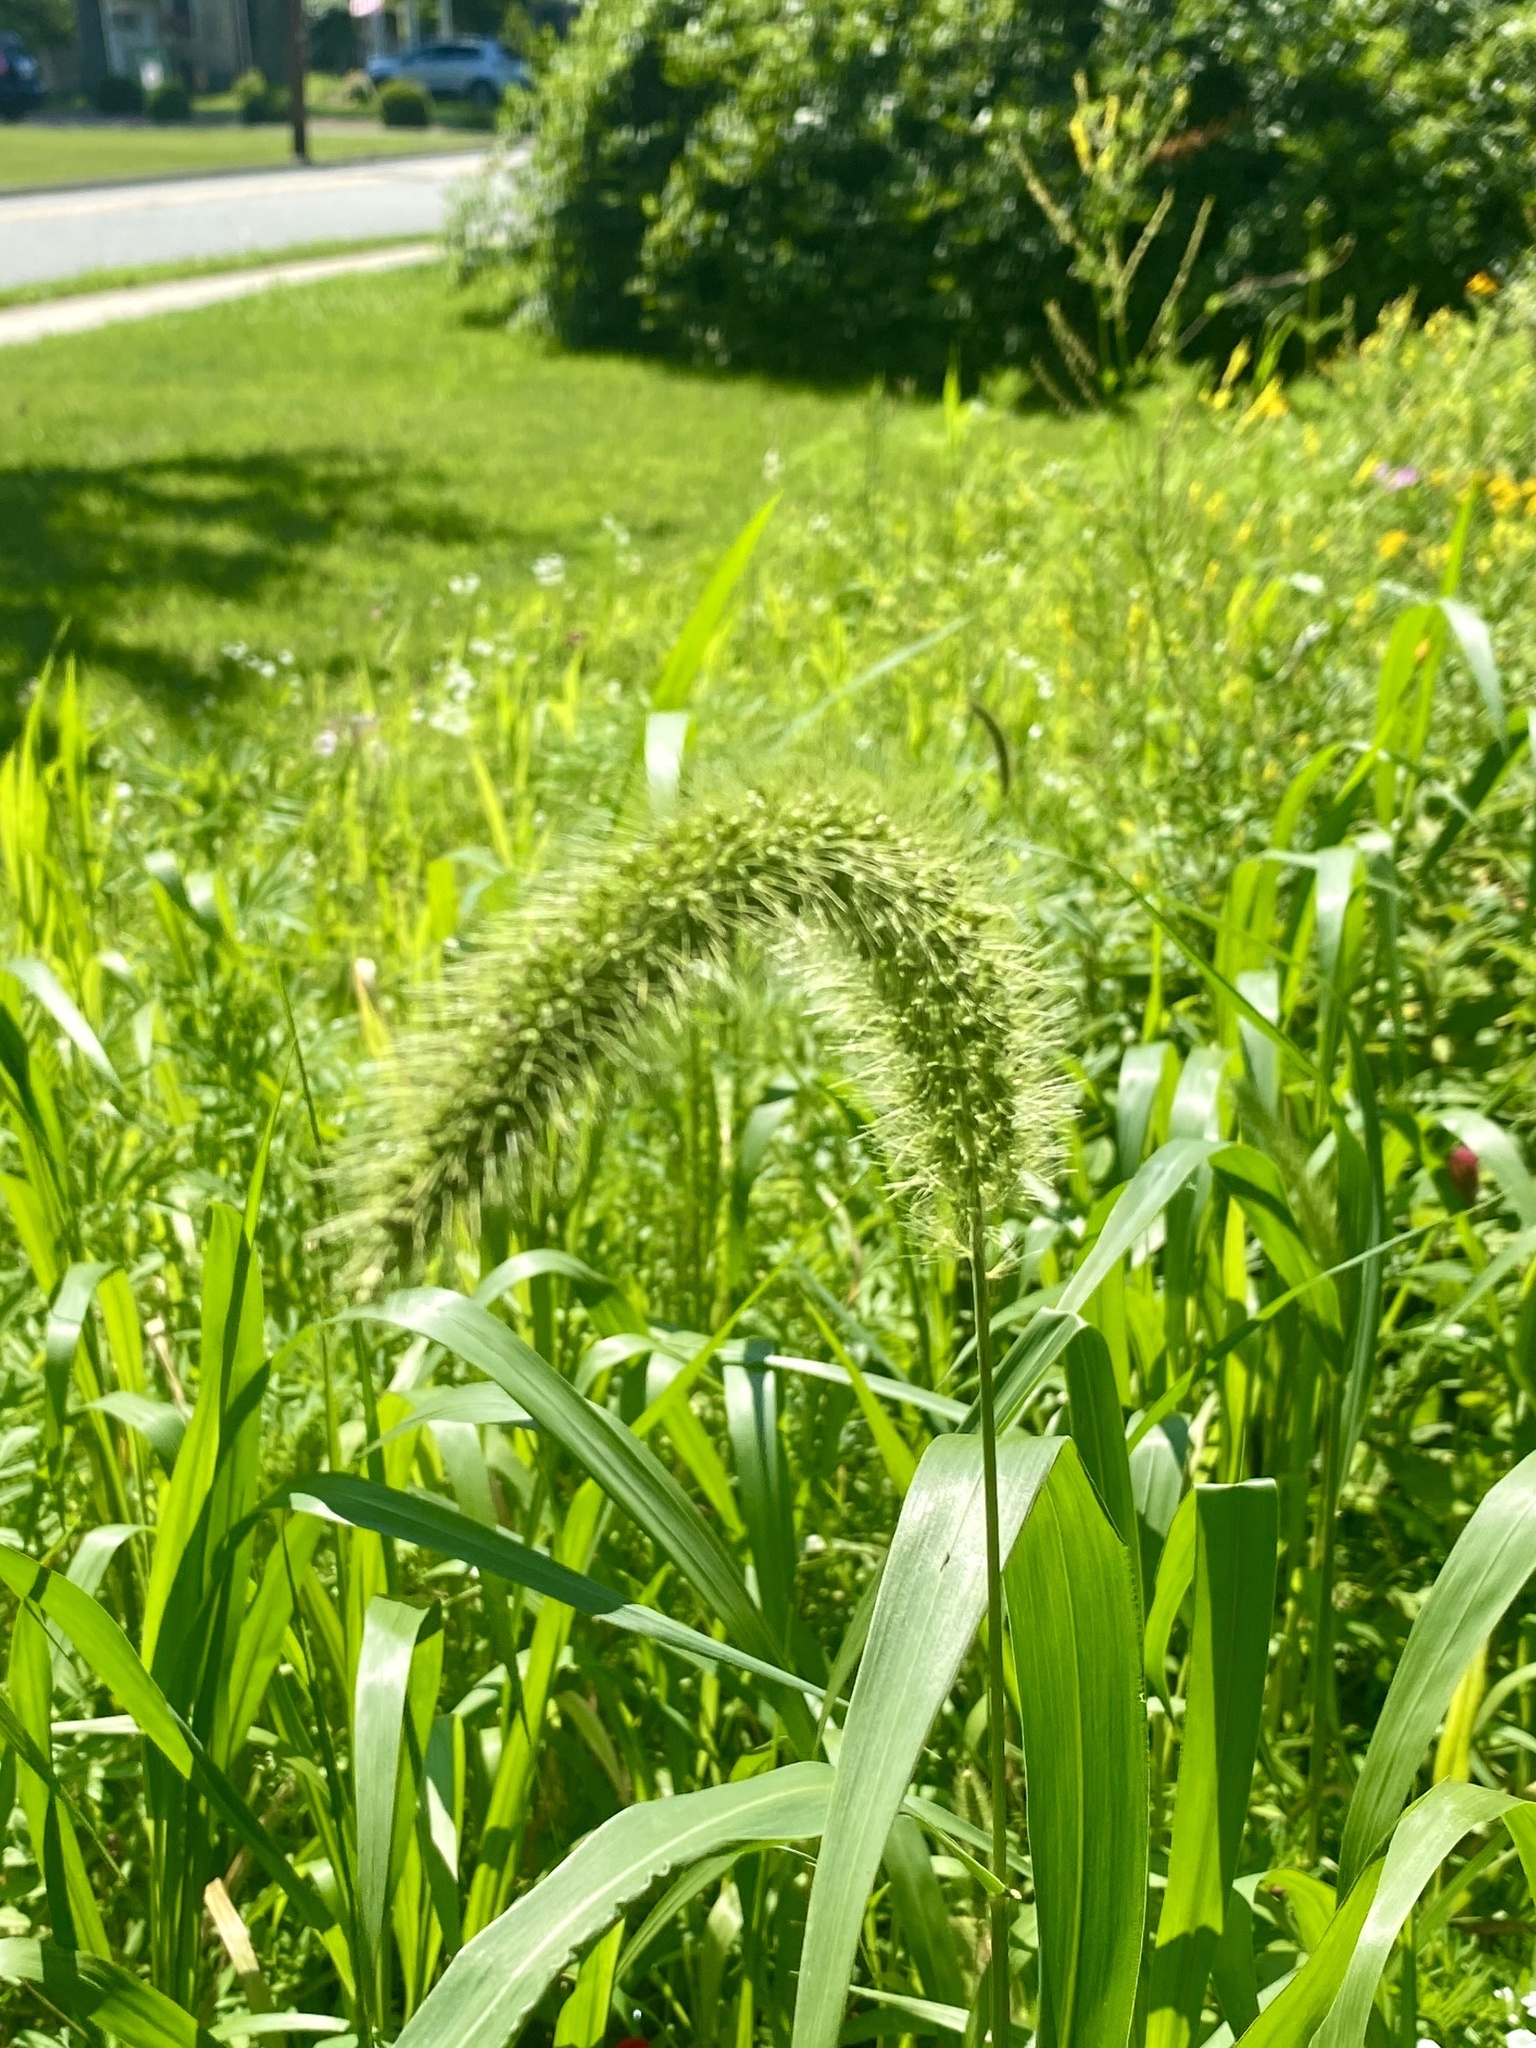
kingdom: Plantae
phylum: Tracheophyta
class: Liliopsida
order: Poales
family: Poaceae
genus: Setaria
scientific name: Setaria faberi
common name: Nodding bristle-grass
